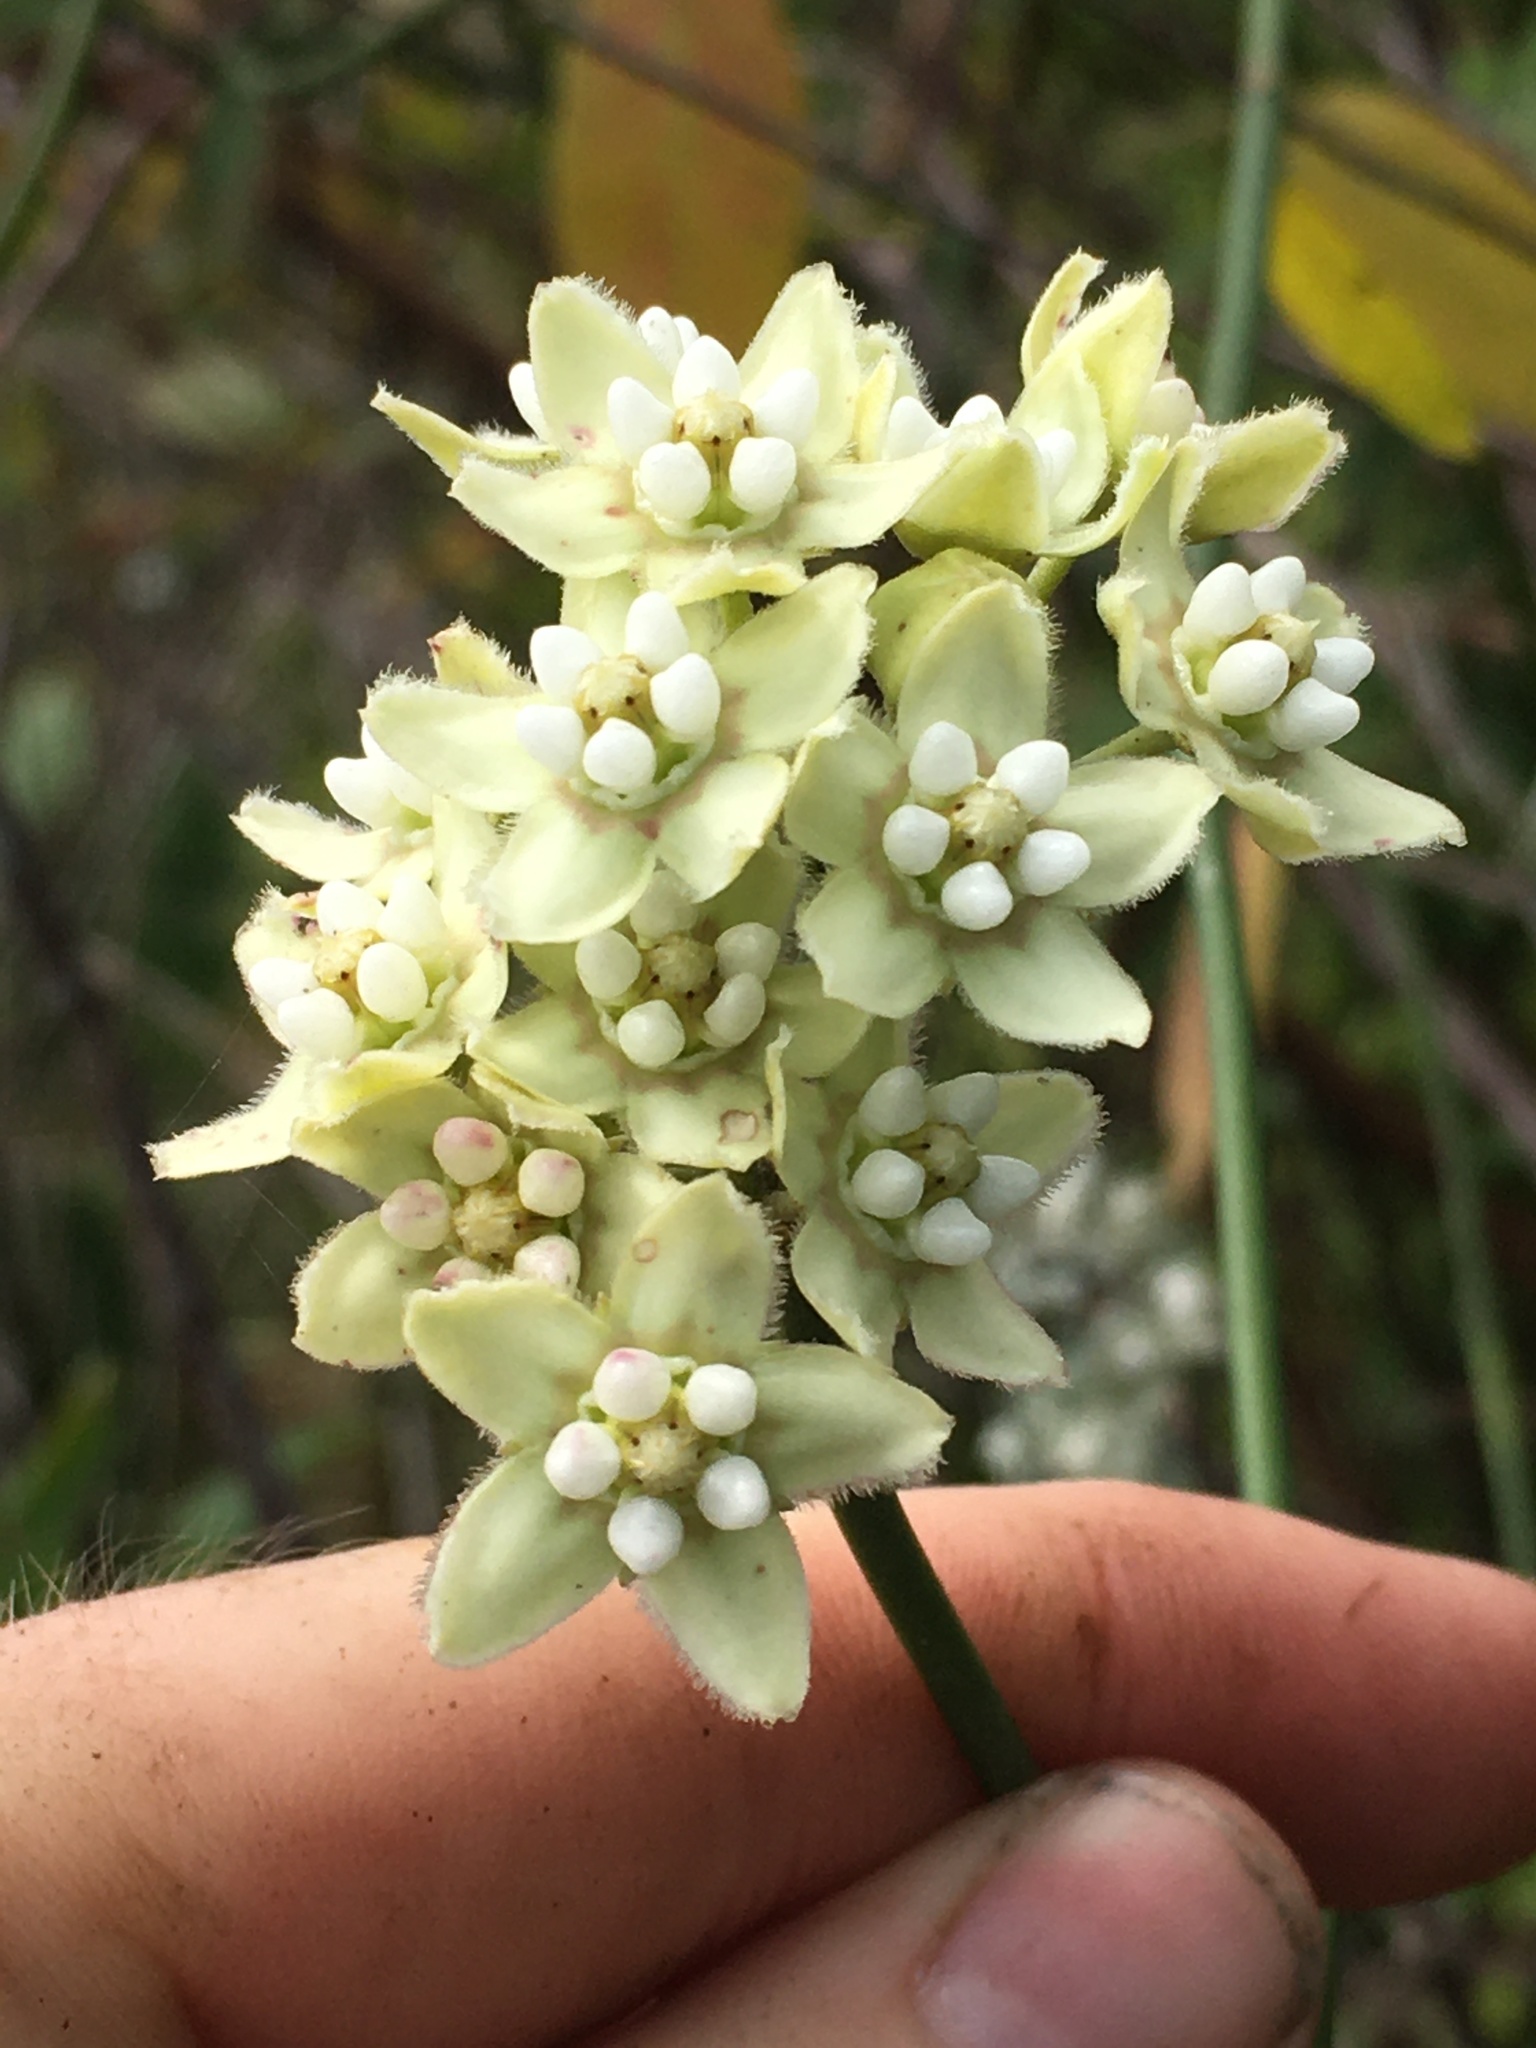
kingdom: Plantae
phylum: Tracheophyta
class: Magnoliopsida
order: Gentianales
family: Apocynaceae
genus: Funastrum
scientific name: Funastrum clausum
